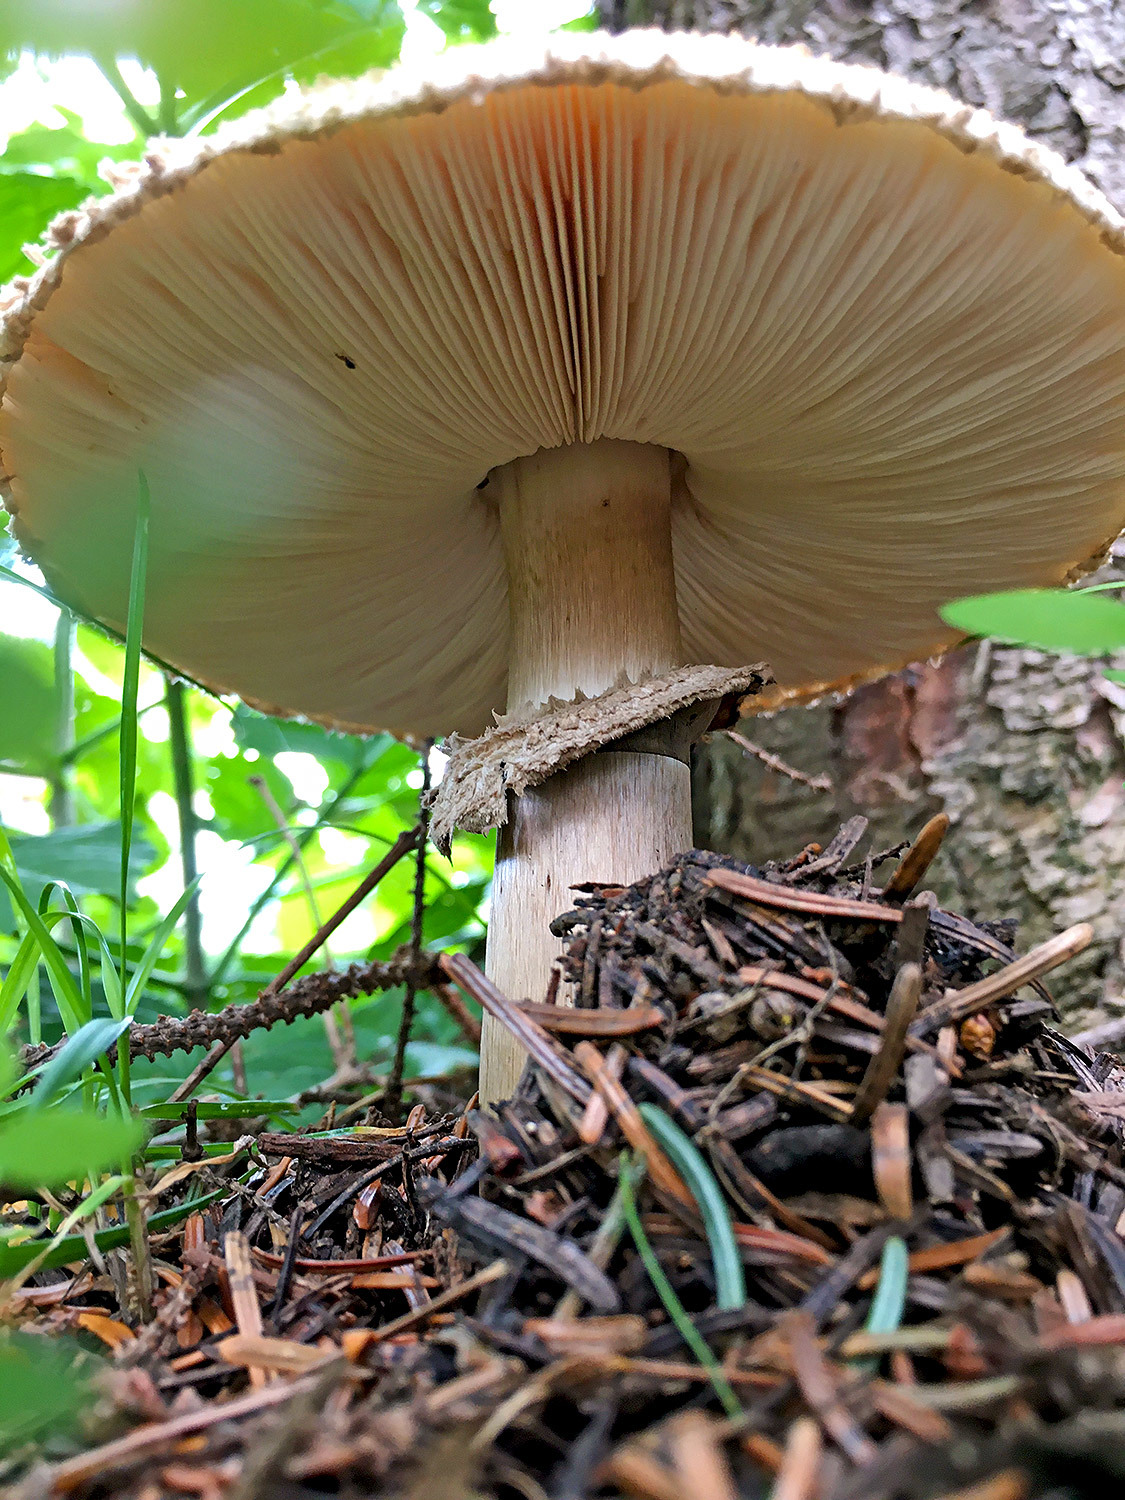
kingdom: Fungi
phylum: Basidiomycota
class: Agaricomycetes
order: Agaricales
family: Agaricaceae
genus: Chlorophyllum
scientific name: Chlorophyllum rhacodes
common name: Shaggy parasol
